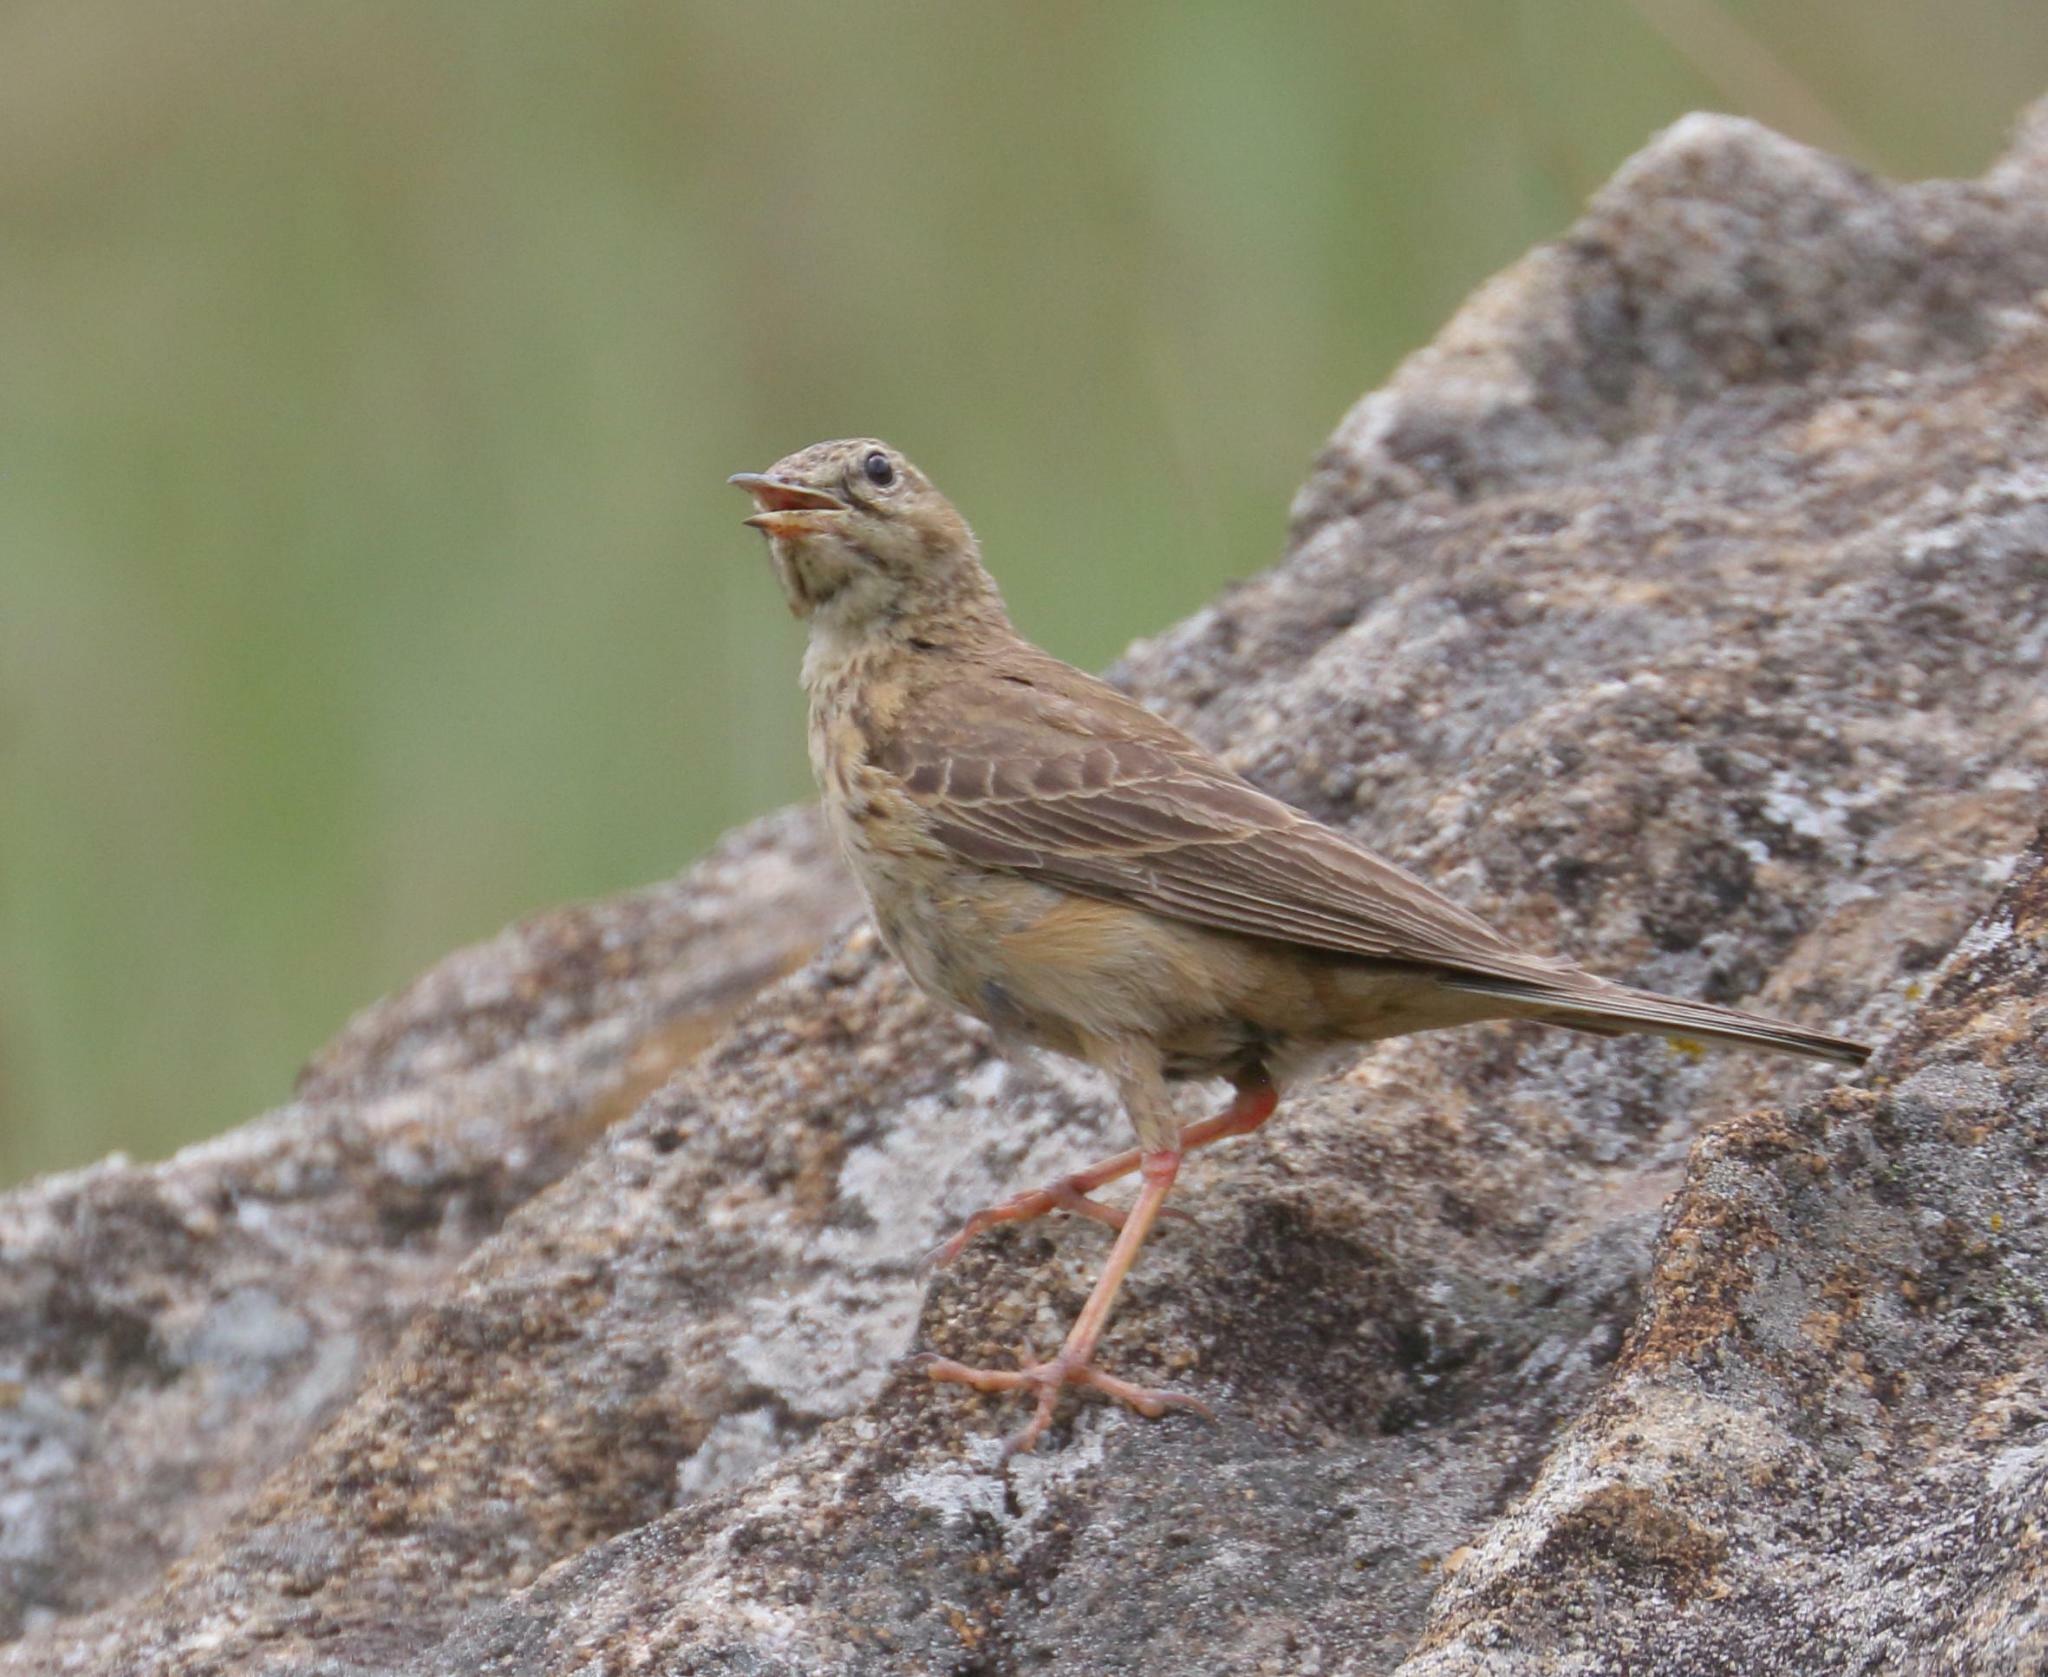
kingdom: Animalia
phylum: Chordata
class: Aves
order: Passeriformes
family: Motacillidae
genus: Anthus
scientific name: Anthus nicholsoni
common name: Nicholson's pipit
